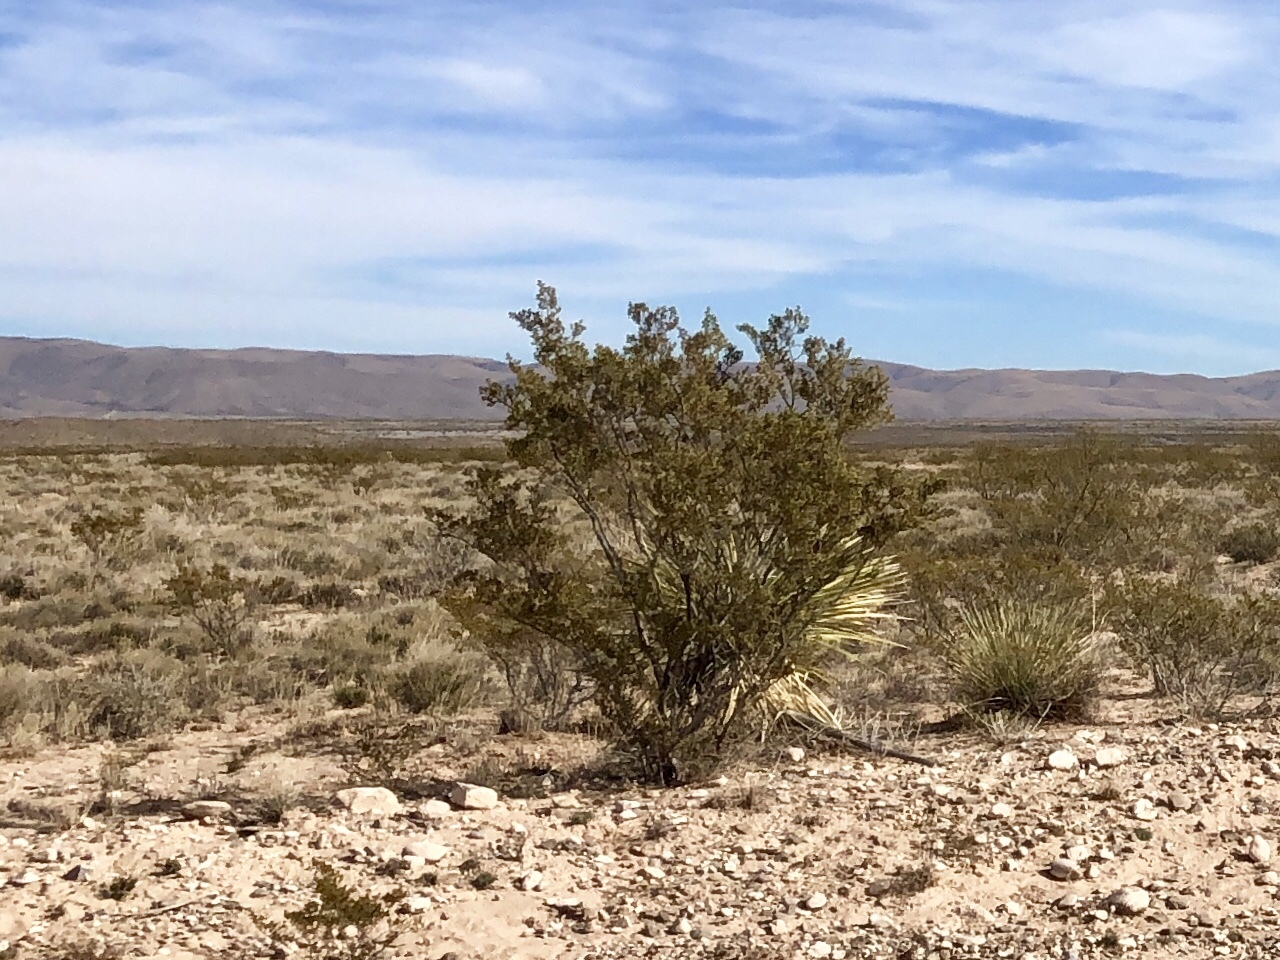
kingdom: Plantae
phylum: Tracheophyta
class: Magnoliopsida
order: Zygophyllales
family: Zygophyllaceae
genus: Larrea
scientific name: Larrea tridentata
